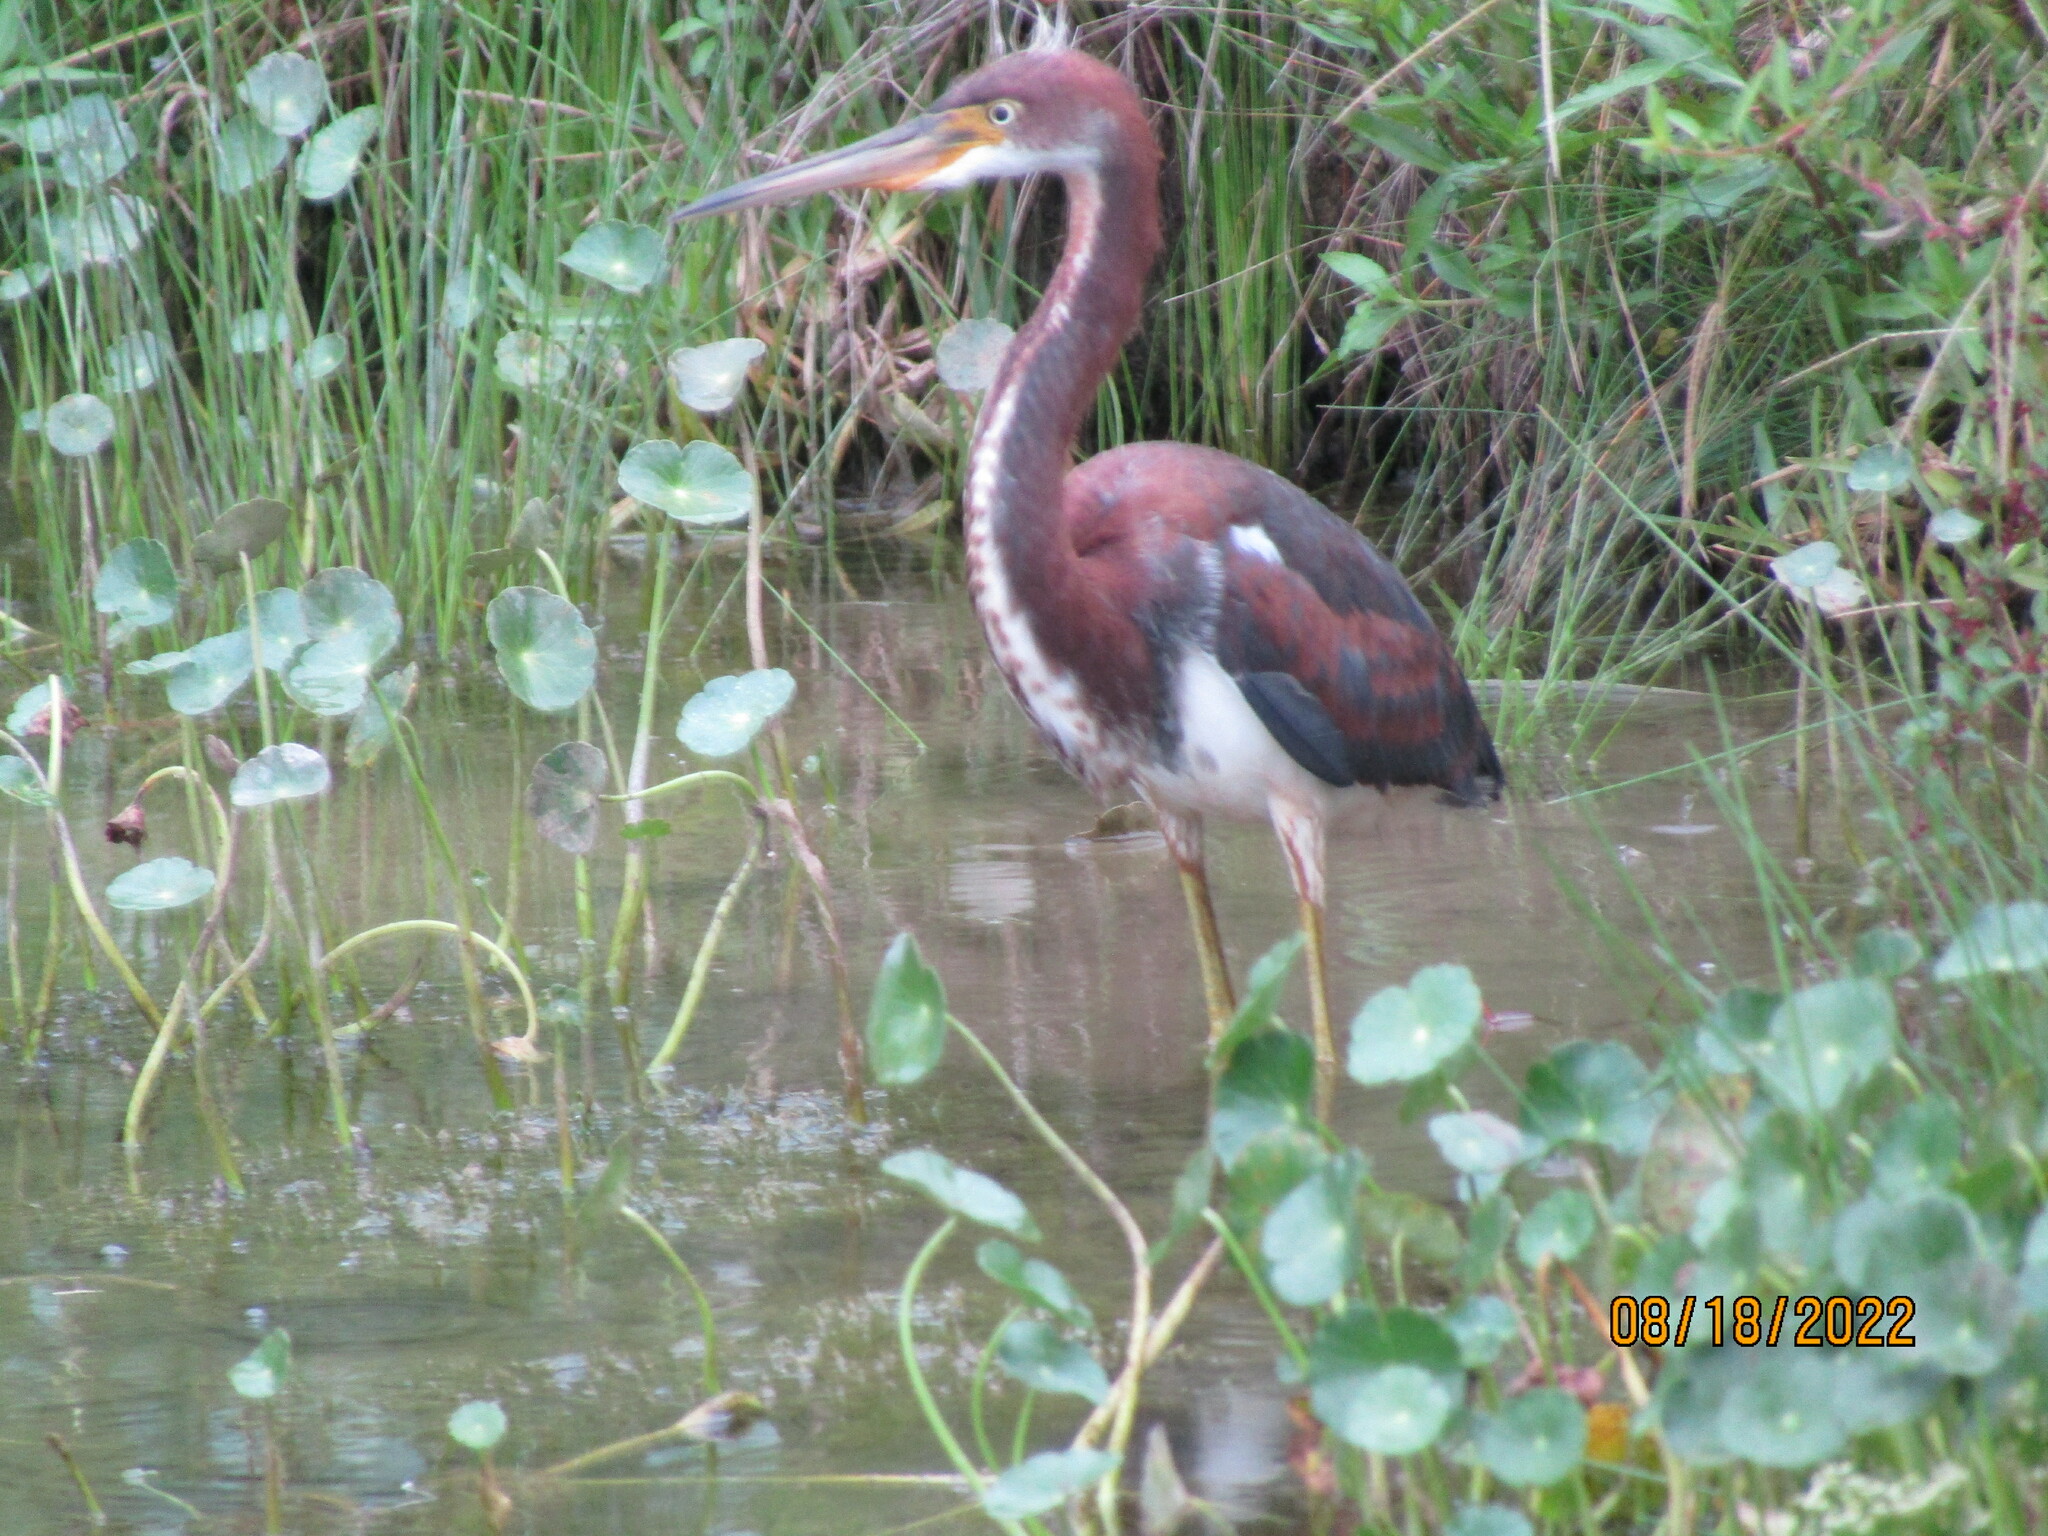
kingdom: Animalia
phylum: Chordata
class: Aves
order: Pelecaniformes
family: Ardeidae
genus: Egretta
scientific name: Egretta tricolor
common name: Tricolored heron
